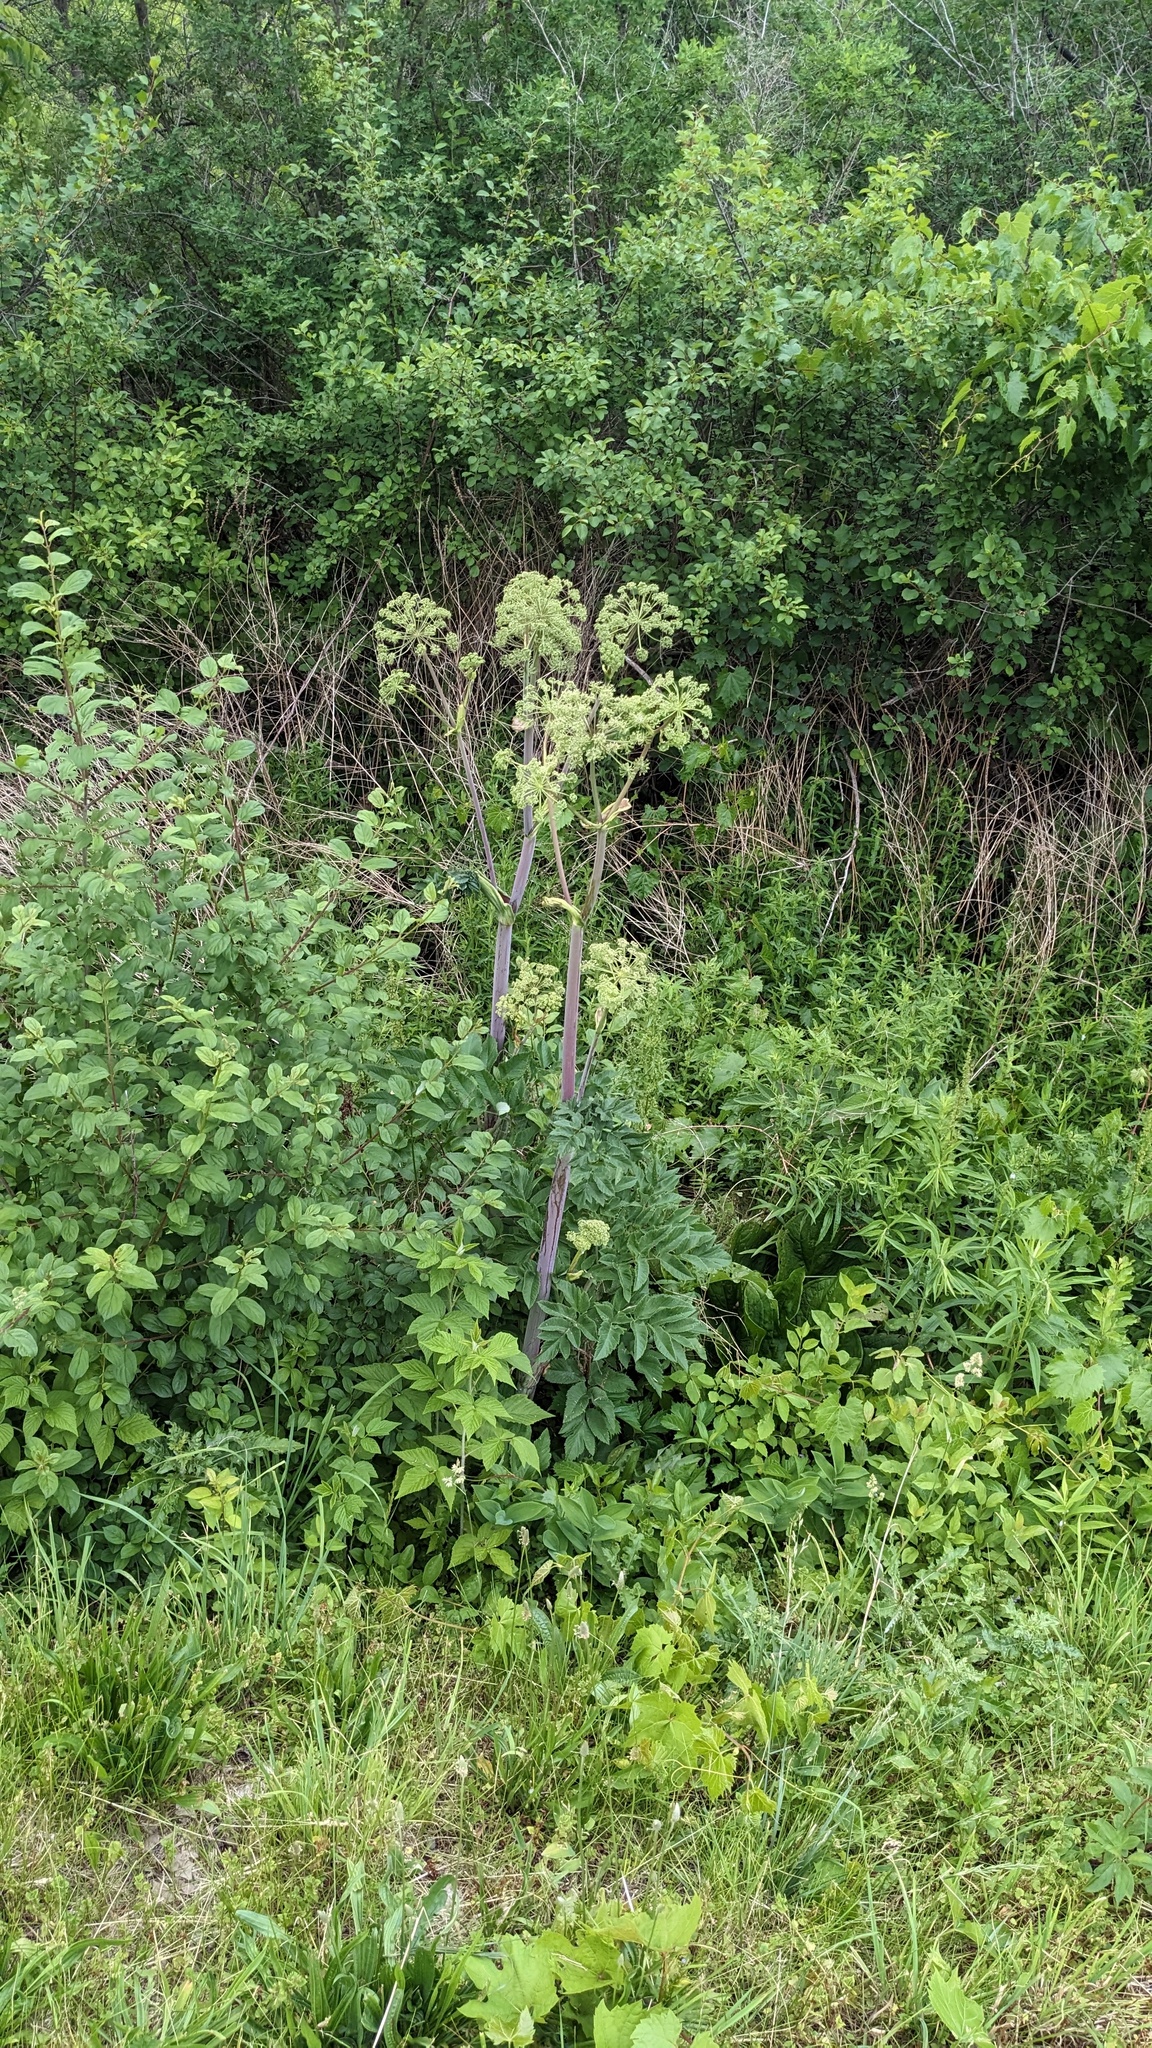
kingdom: Plantae
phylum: Tracheophyta
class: Magnoliopsida
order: Apiales
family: Apiaceae
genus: Angelica
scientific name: Angelica atropurpurea
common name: Great angelica
